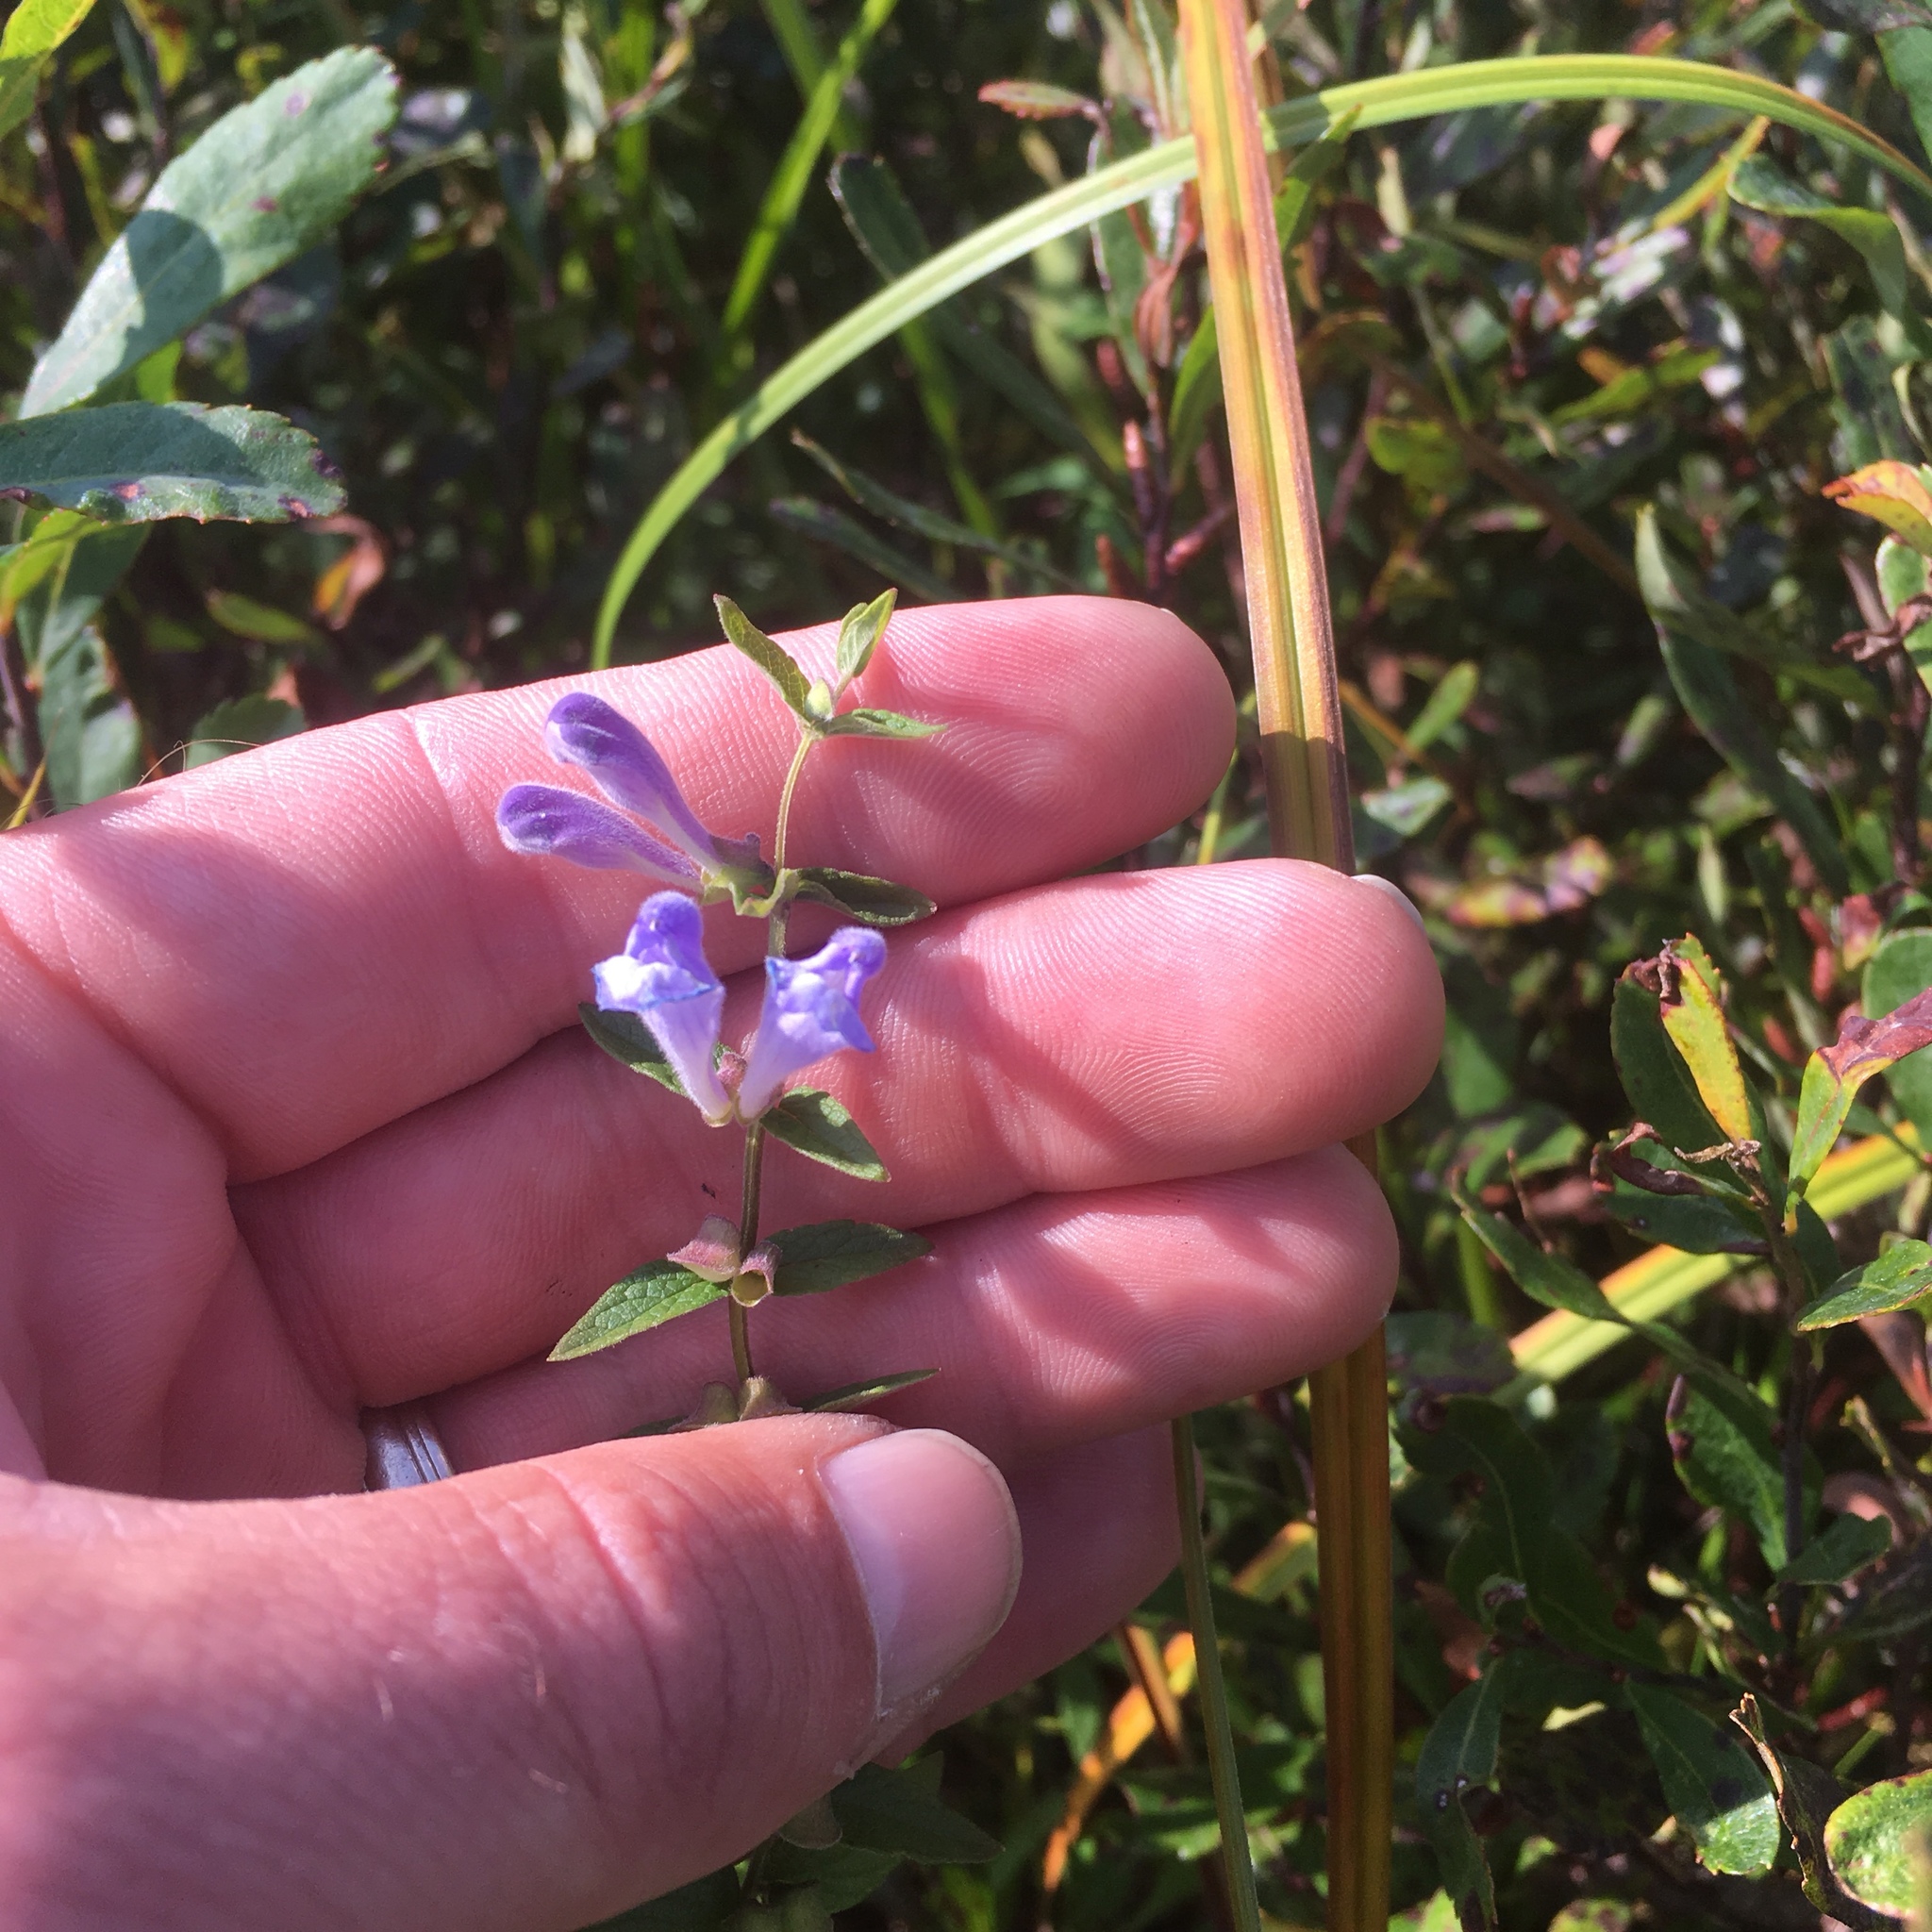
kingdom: Plantae
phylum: Tracheophyta
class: Magnoliopsida
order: Lamiales
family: Lamiaceae
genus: Scutellaria
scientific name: Scutellaria galericulata
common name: Skullcap
